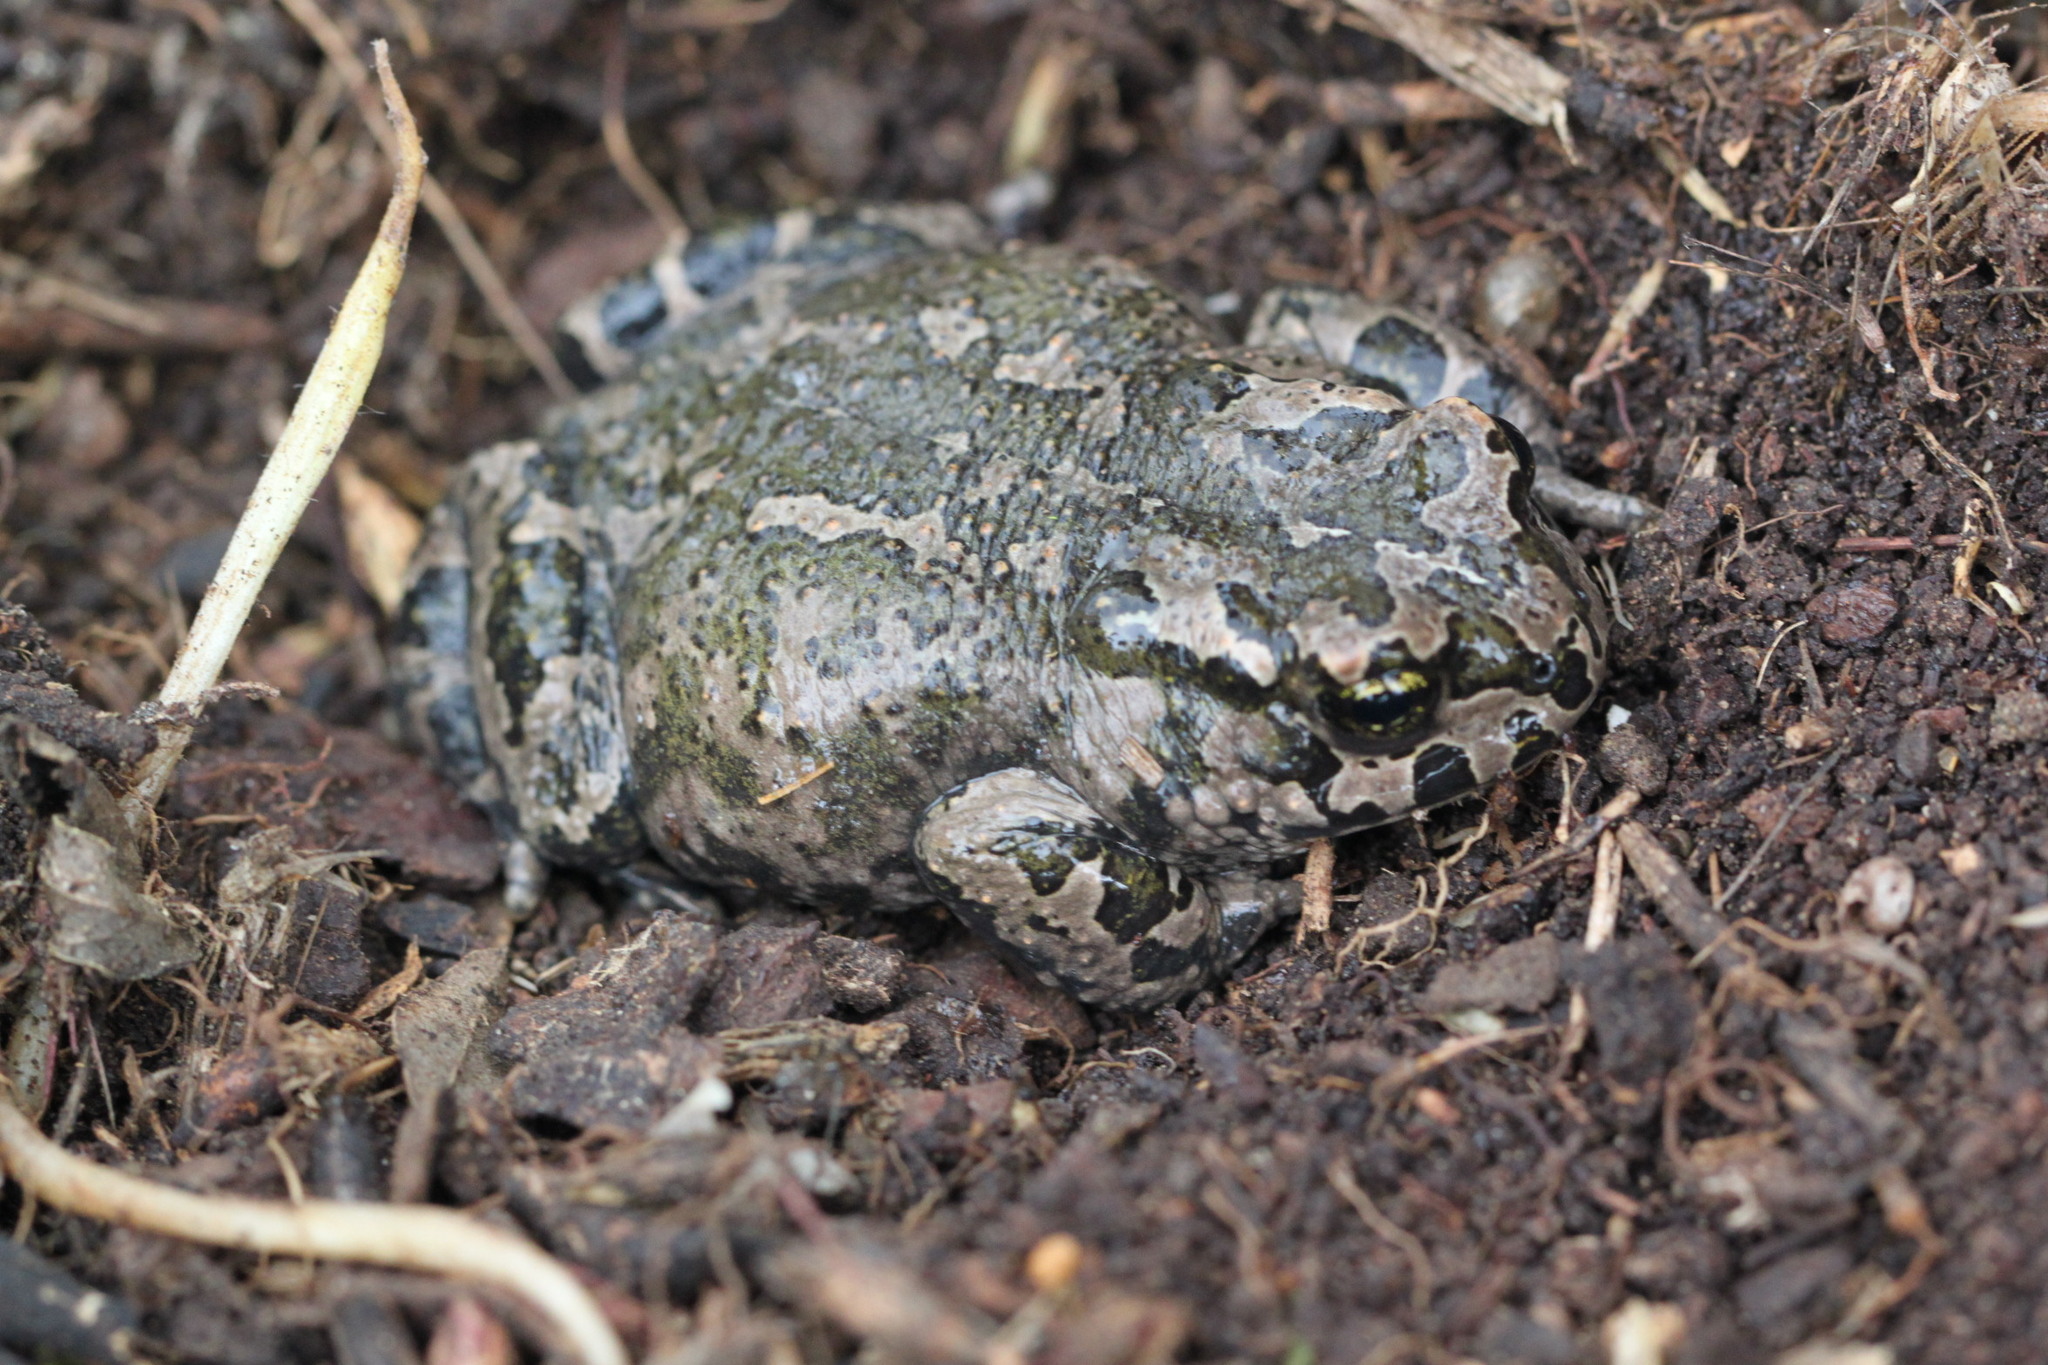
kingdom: Animalia
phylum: Chordata
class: Amphibia
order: Anura
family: Bufonidae
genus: Bufotes
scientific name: Bufotes cypriensis
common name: Cyprus green toad
